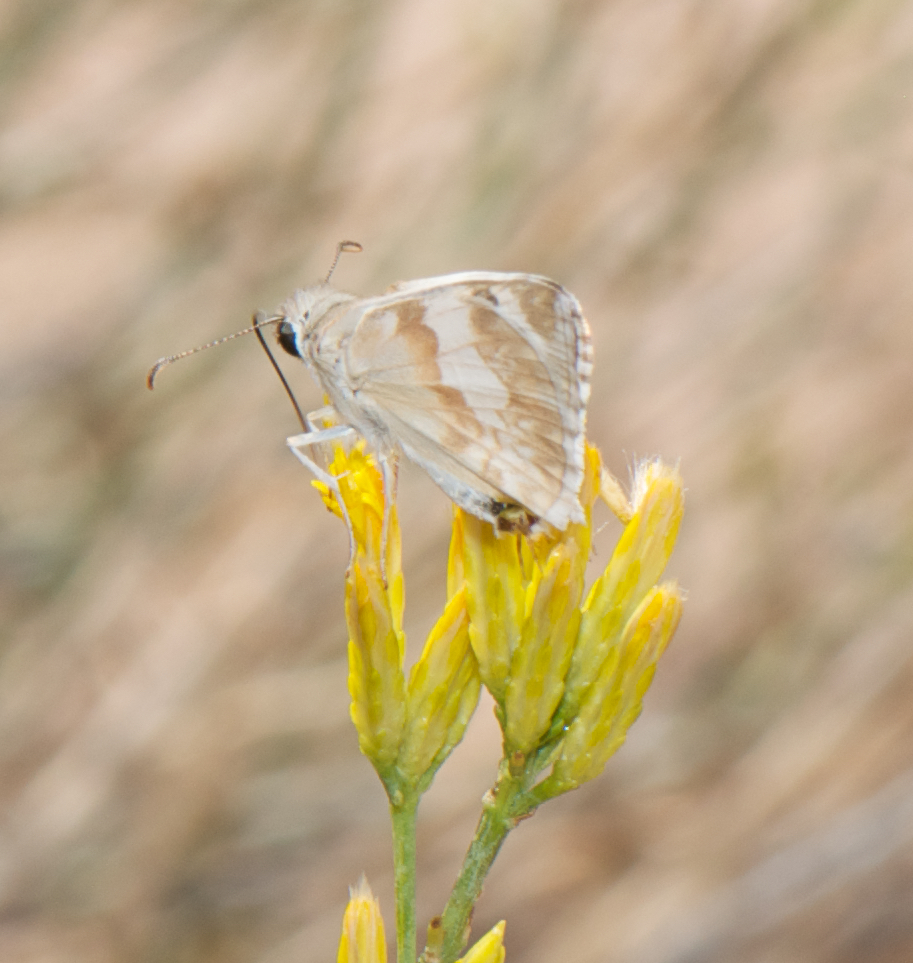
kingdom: Animalia
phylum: Arthropoda
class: Insecta
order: Lepidoptera
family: Hesperiidae
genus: Heliopetes
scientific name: Heliopetes ericetorum
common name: Northern white-skipper
